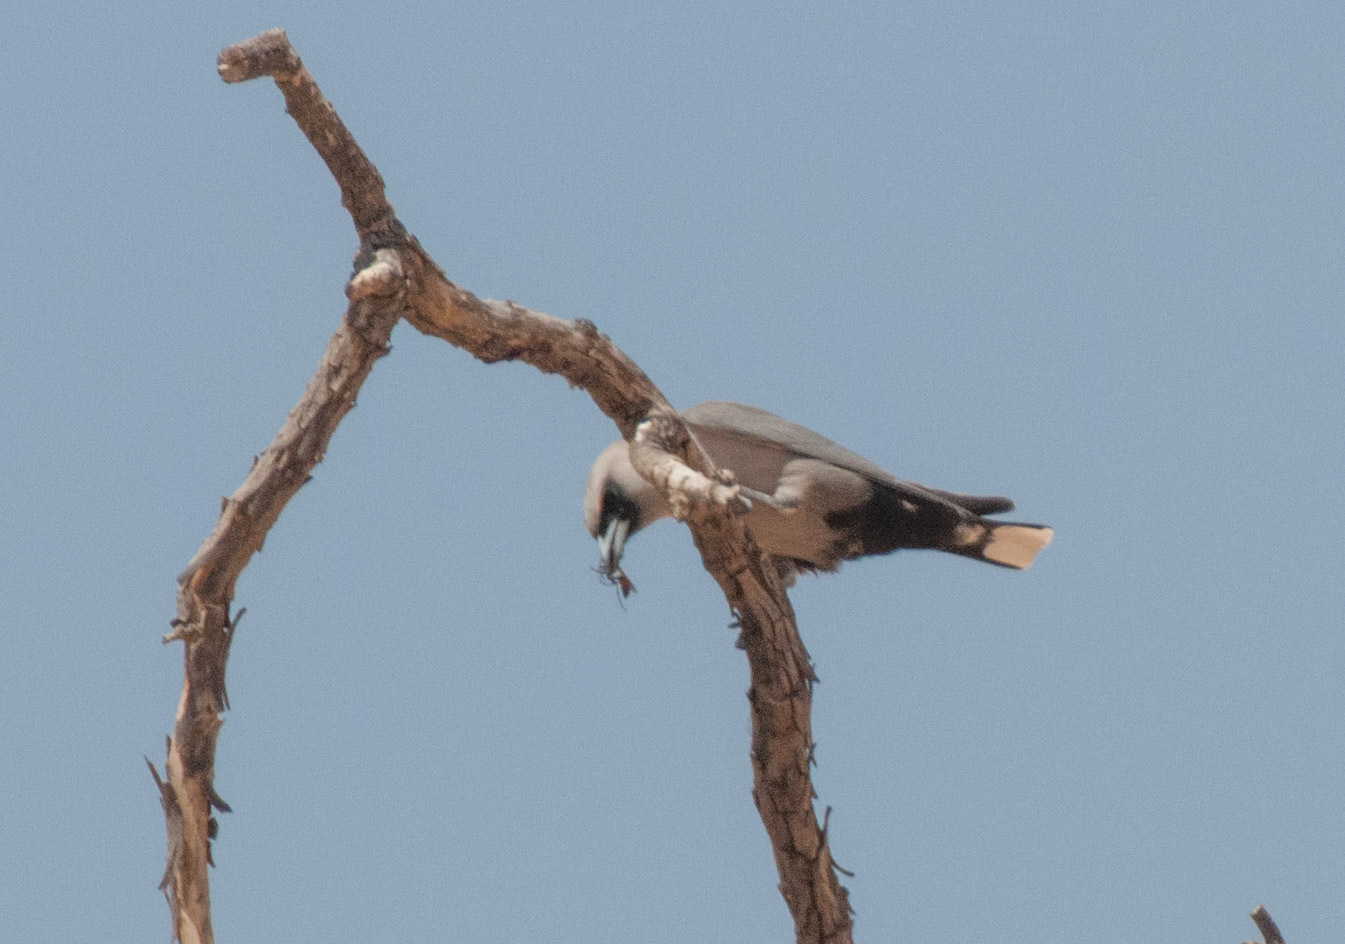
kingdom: Animalia
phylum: Chordata
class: Aves
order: Passeriformes
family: Artamidae
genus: Artamus
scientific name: Artamus cinereus
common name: Black-faced woodswallow
